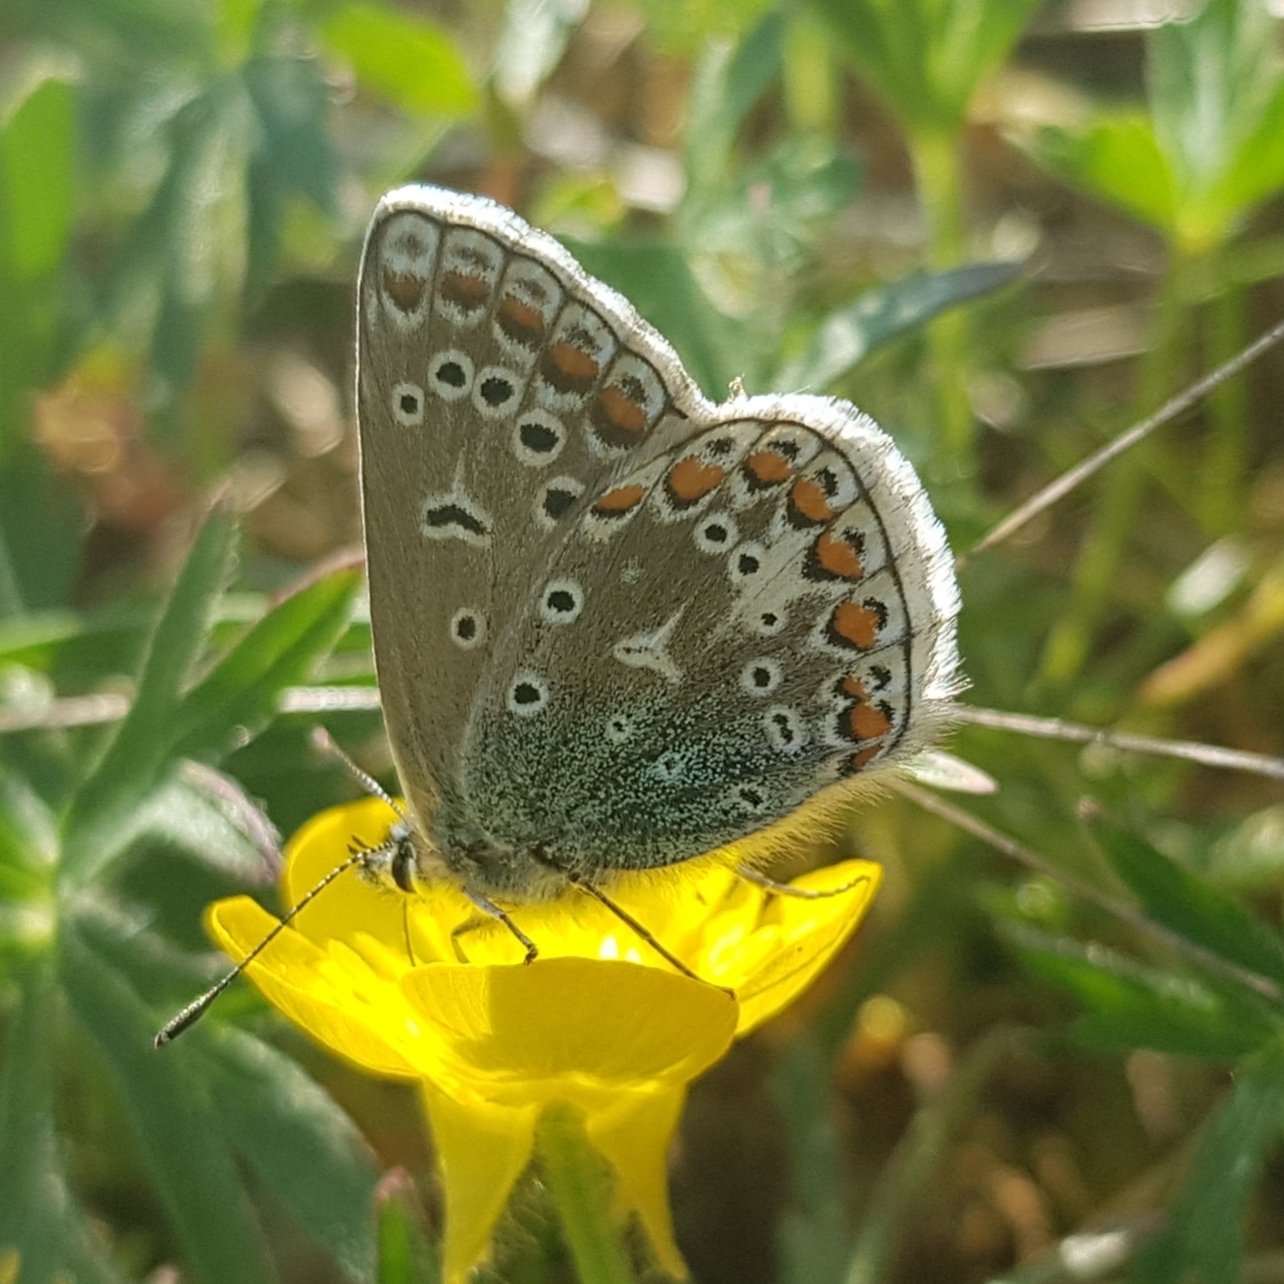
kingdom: Animalia
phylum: Arthropoda
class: Insecta
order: Lepidoptera
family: Lycaenidae
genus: Polyommatus
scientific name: Polyommatus icarus
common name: Common blue
